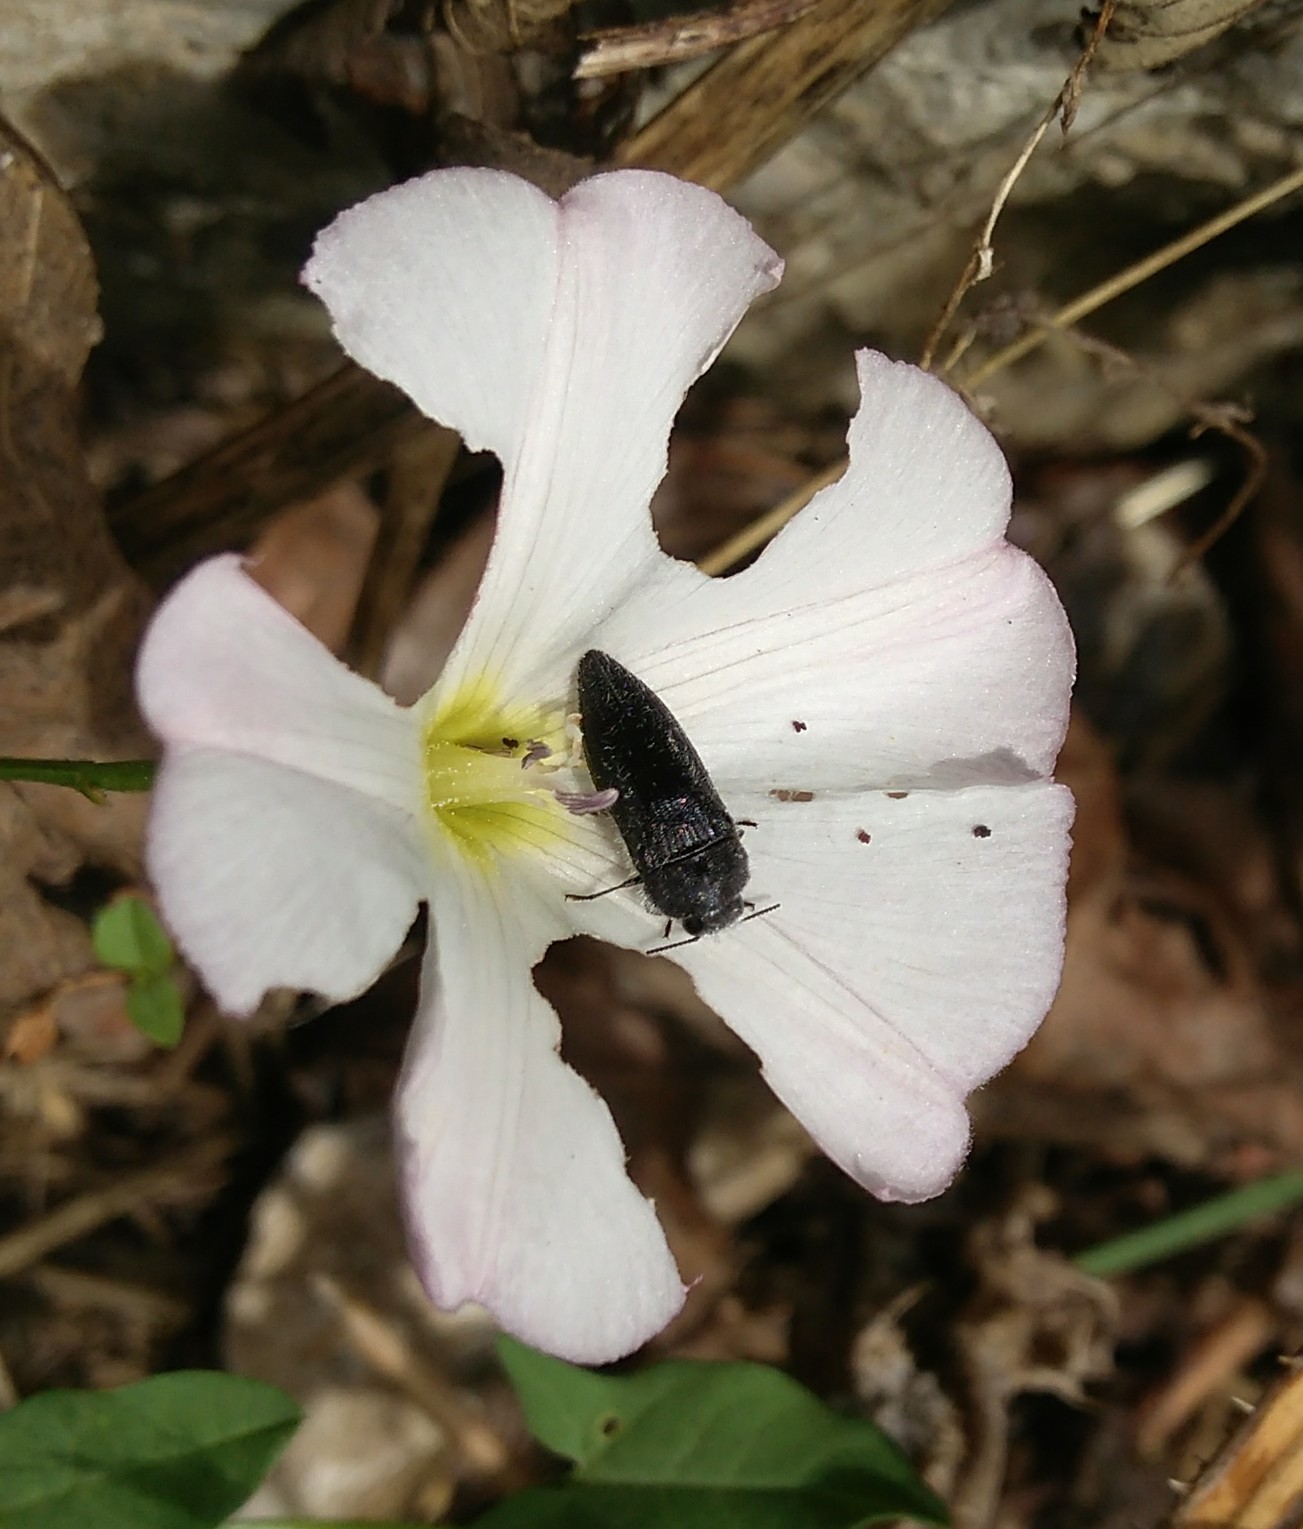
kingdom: Animalia
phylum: Arthropoda
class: Insecta
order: Coleoptera
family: Buprestidae
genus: Acmaeodera
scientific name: Acmaeodera cylindrica
